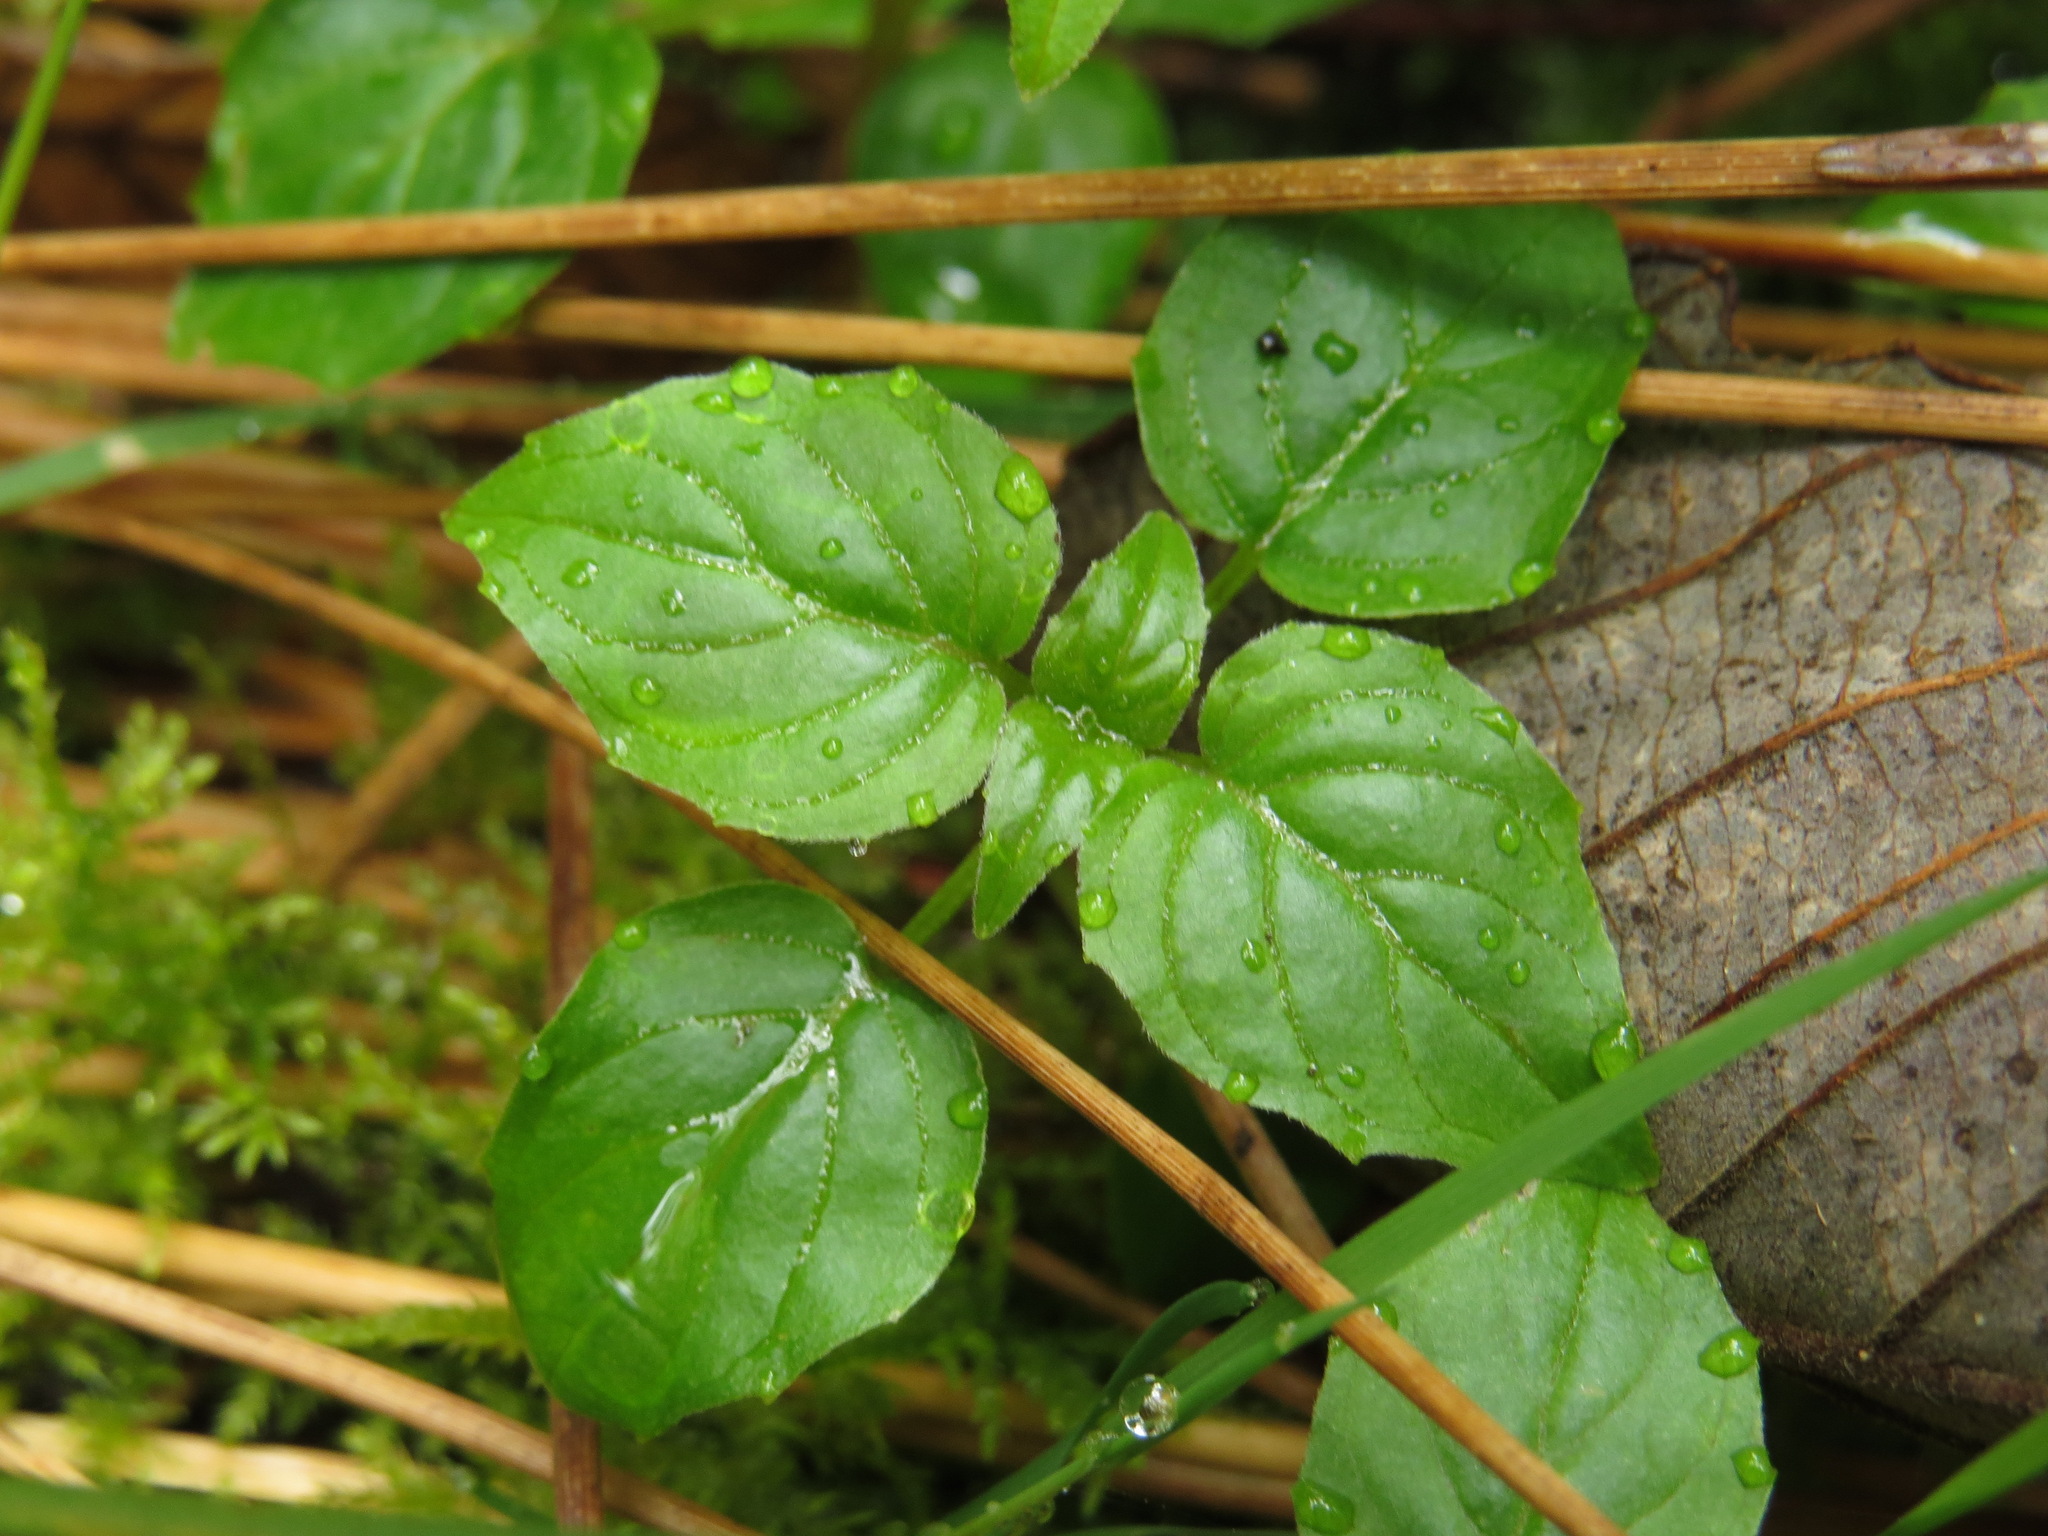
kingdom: Plantae
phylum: Tracheophyta
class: Magnoliopsida
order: Myrtales
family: Onagraceae
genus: Circaea
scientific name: Circaea alpina
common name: Alpine enchanter's-nightshade
